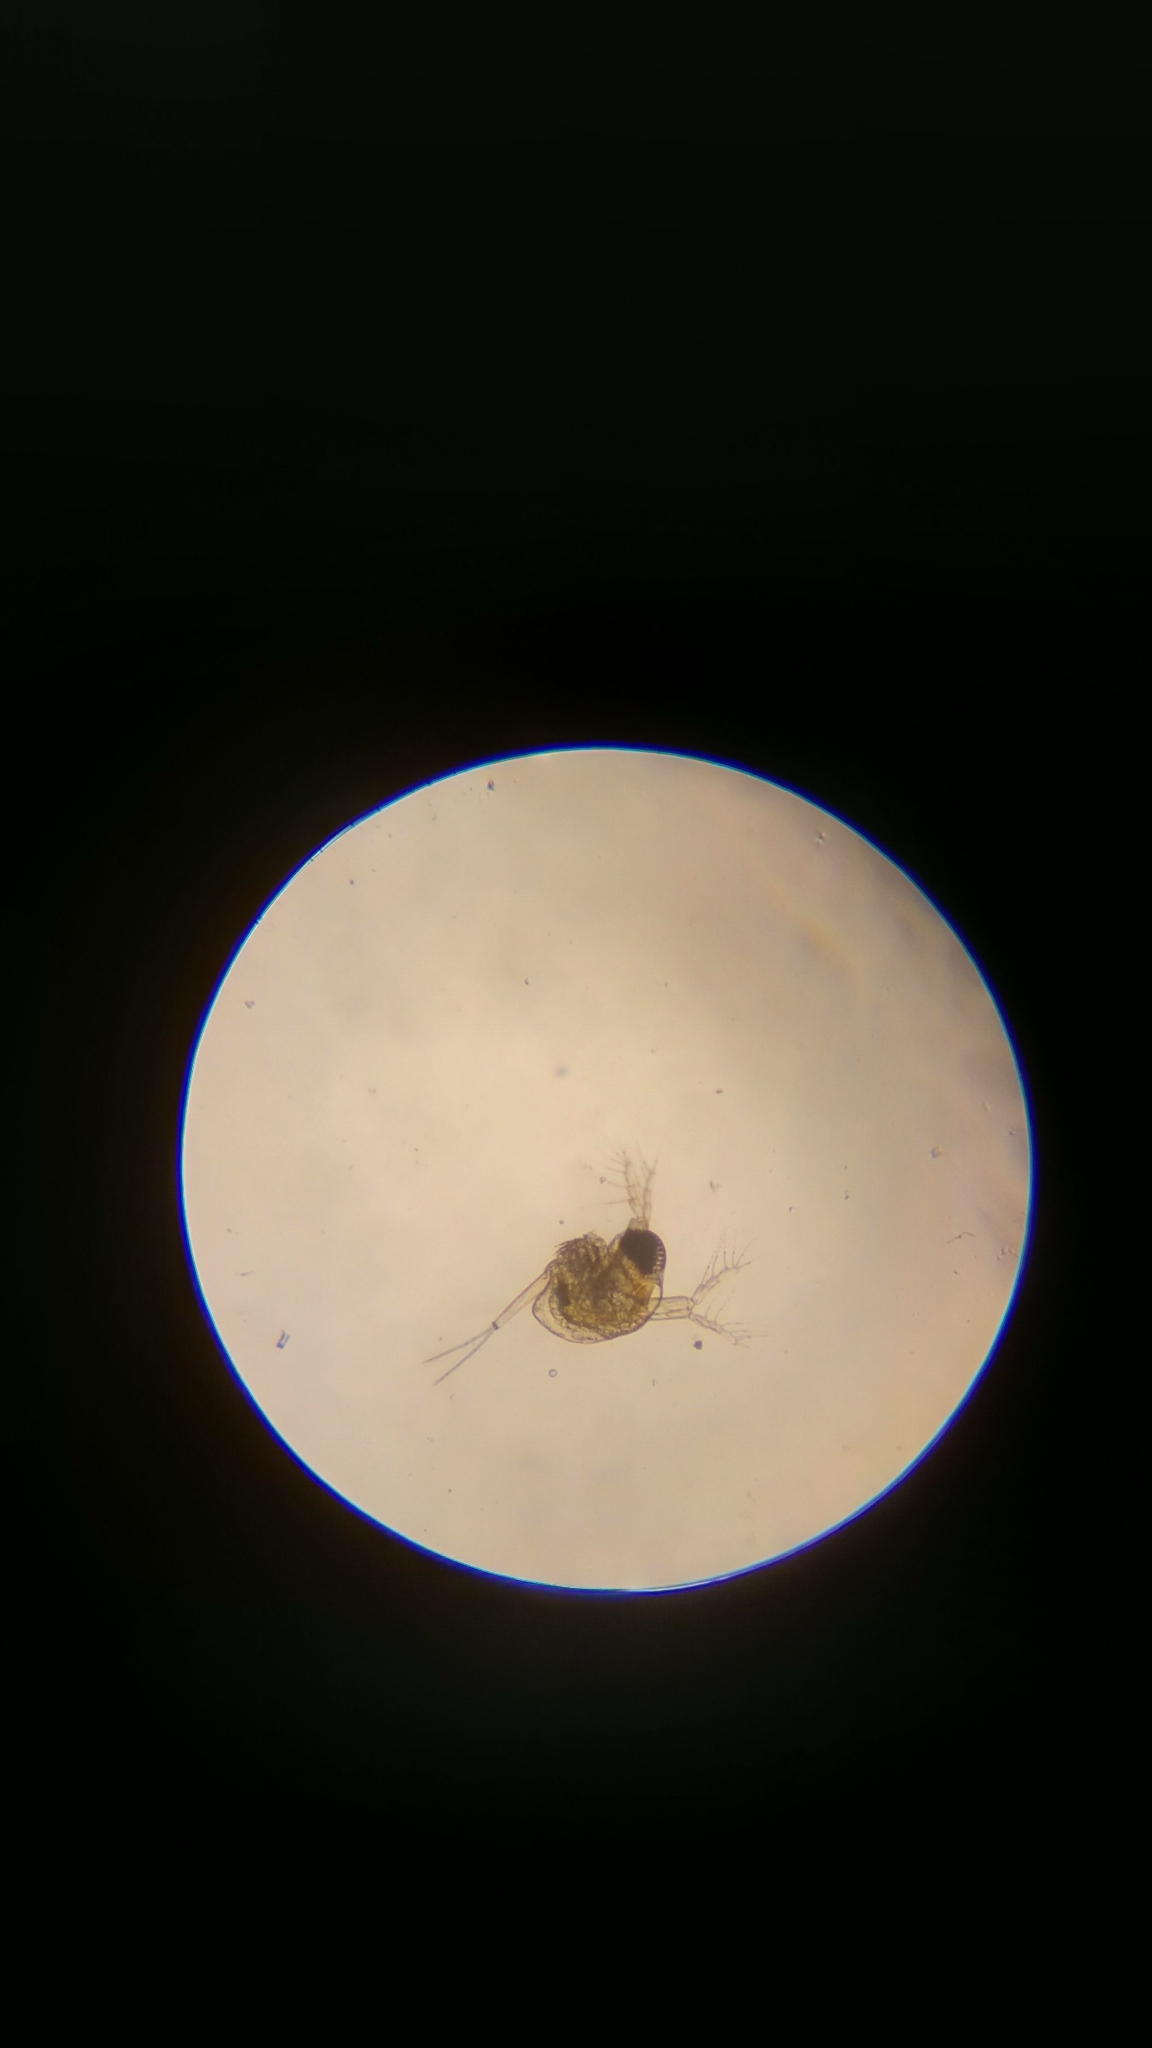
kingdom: Animalia
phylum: Arthropoda
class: Branchiopoda
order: Diplostraca
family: Polyphemidae
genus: Polyphemus
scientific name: Polyphemus pediculus
